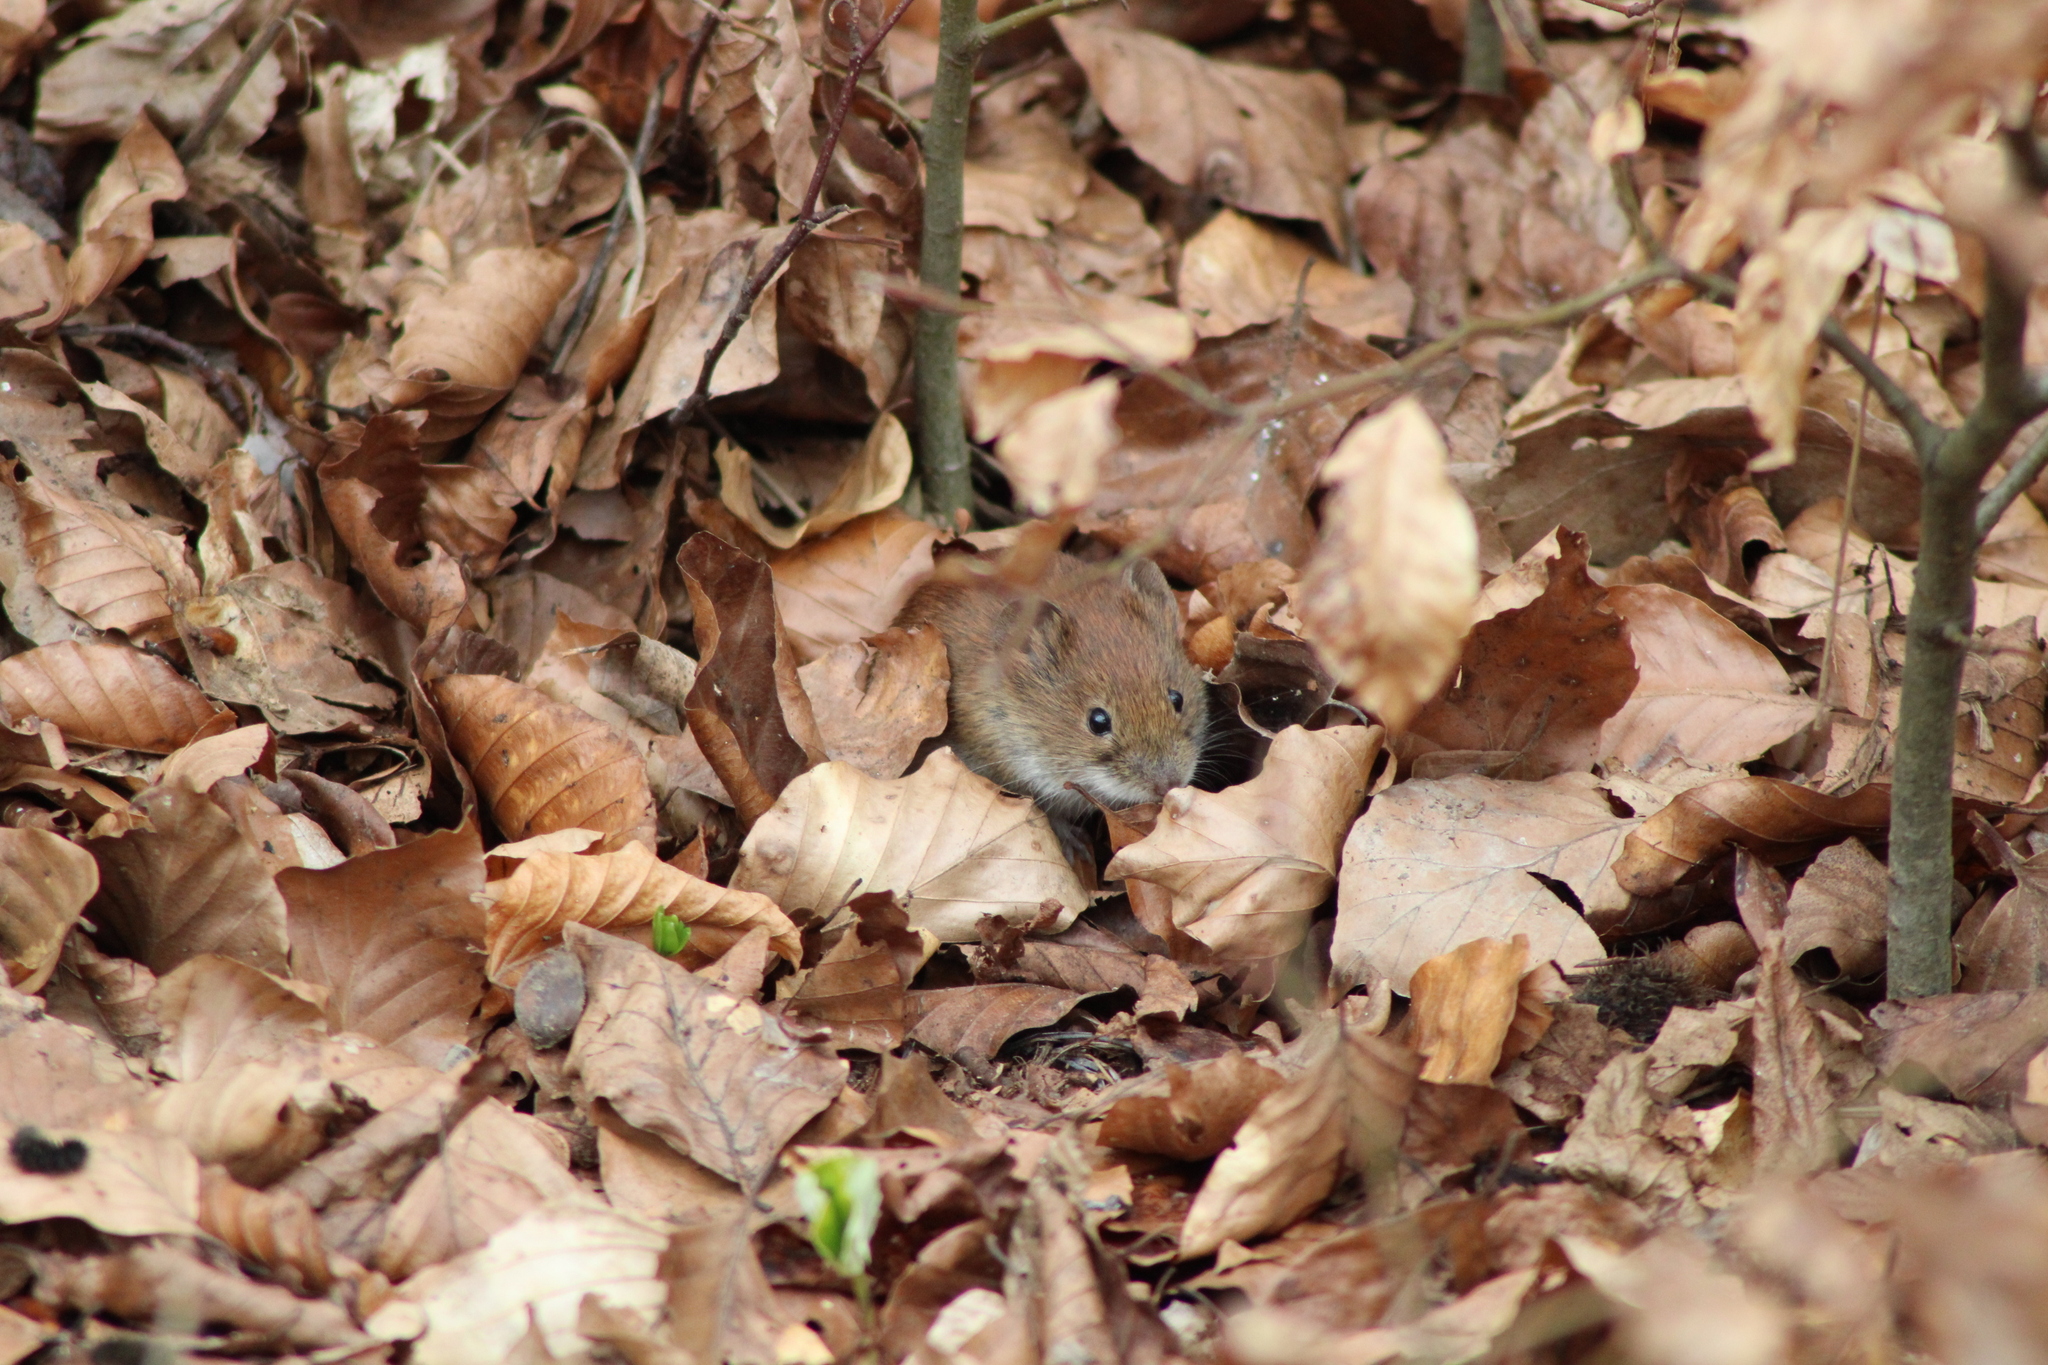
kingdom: Animalia
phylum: Chordata
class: Mammalia
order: Rodentia
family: Cricetidae
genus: Myodes
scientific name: Myodes glareolus
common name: Bank vole
